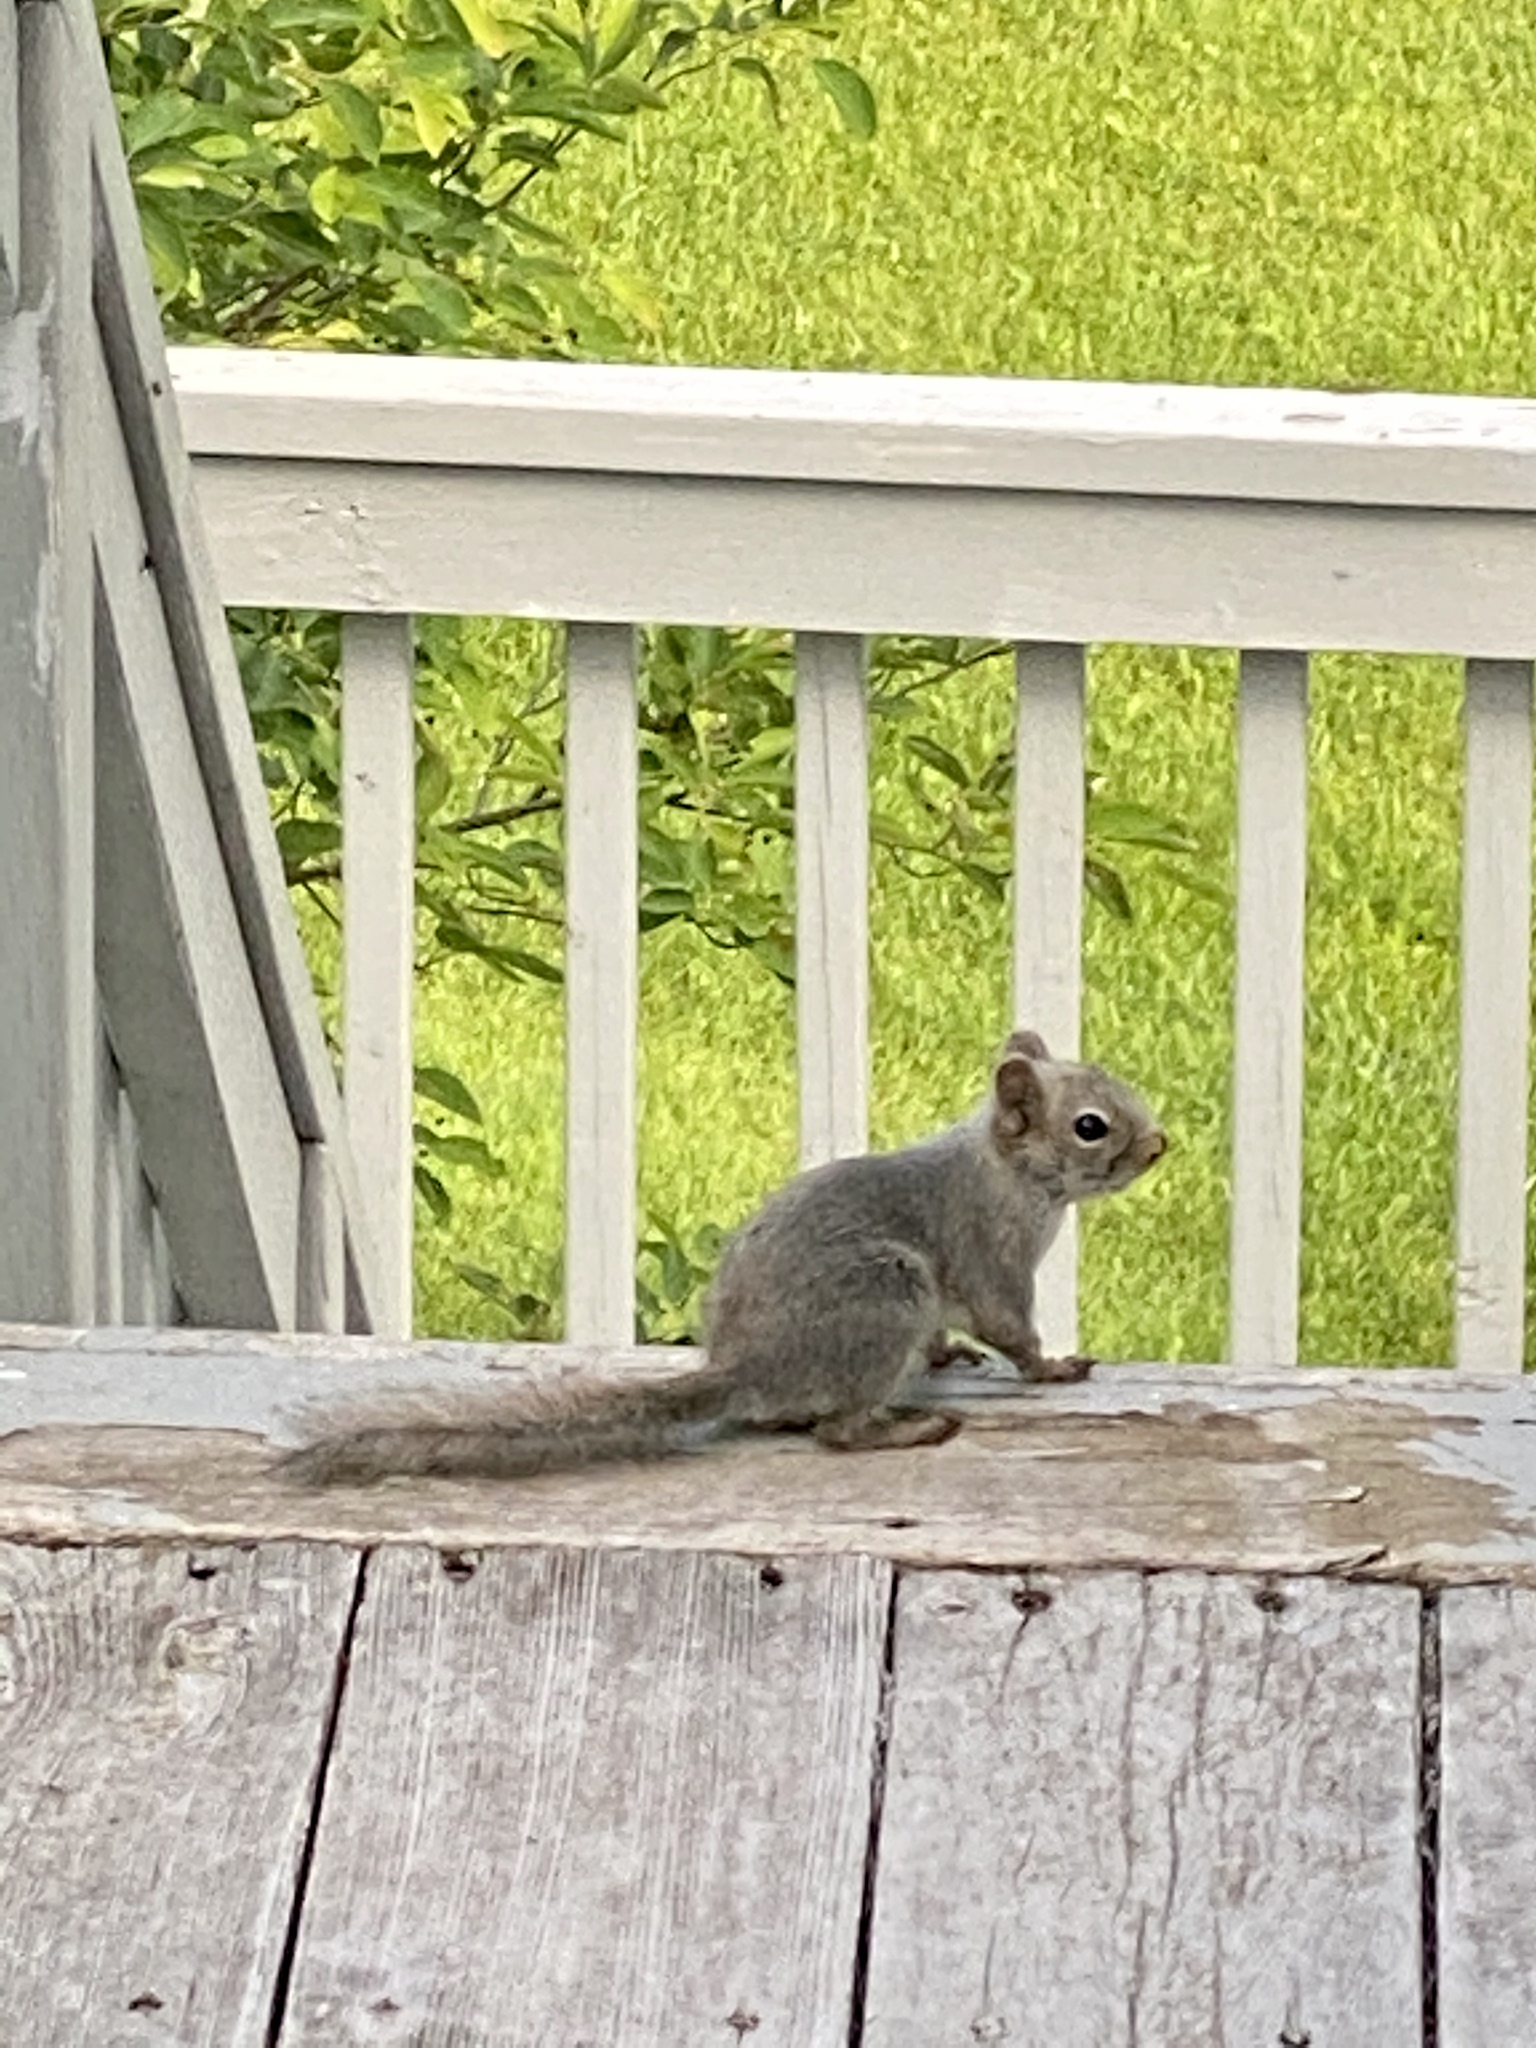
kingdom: Animalia
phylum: Chordata
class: Mammalia
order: Rodentia
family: Sciuridae
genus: Sciurus
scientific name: Sciurus carolinensis
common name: Eastern gray squirrel
